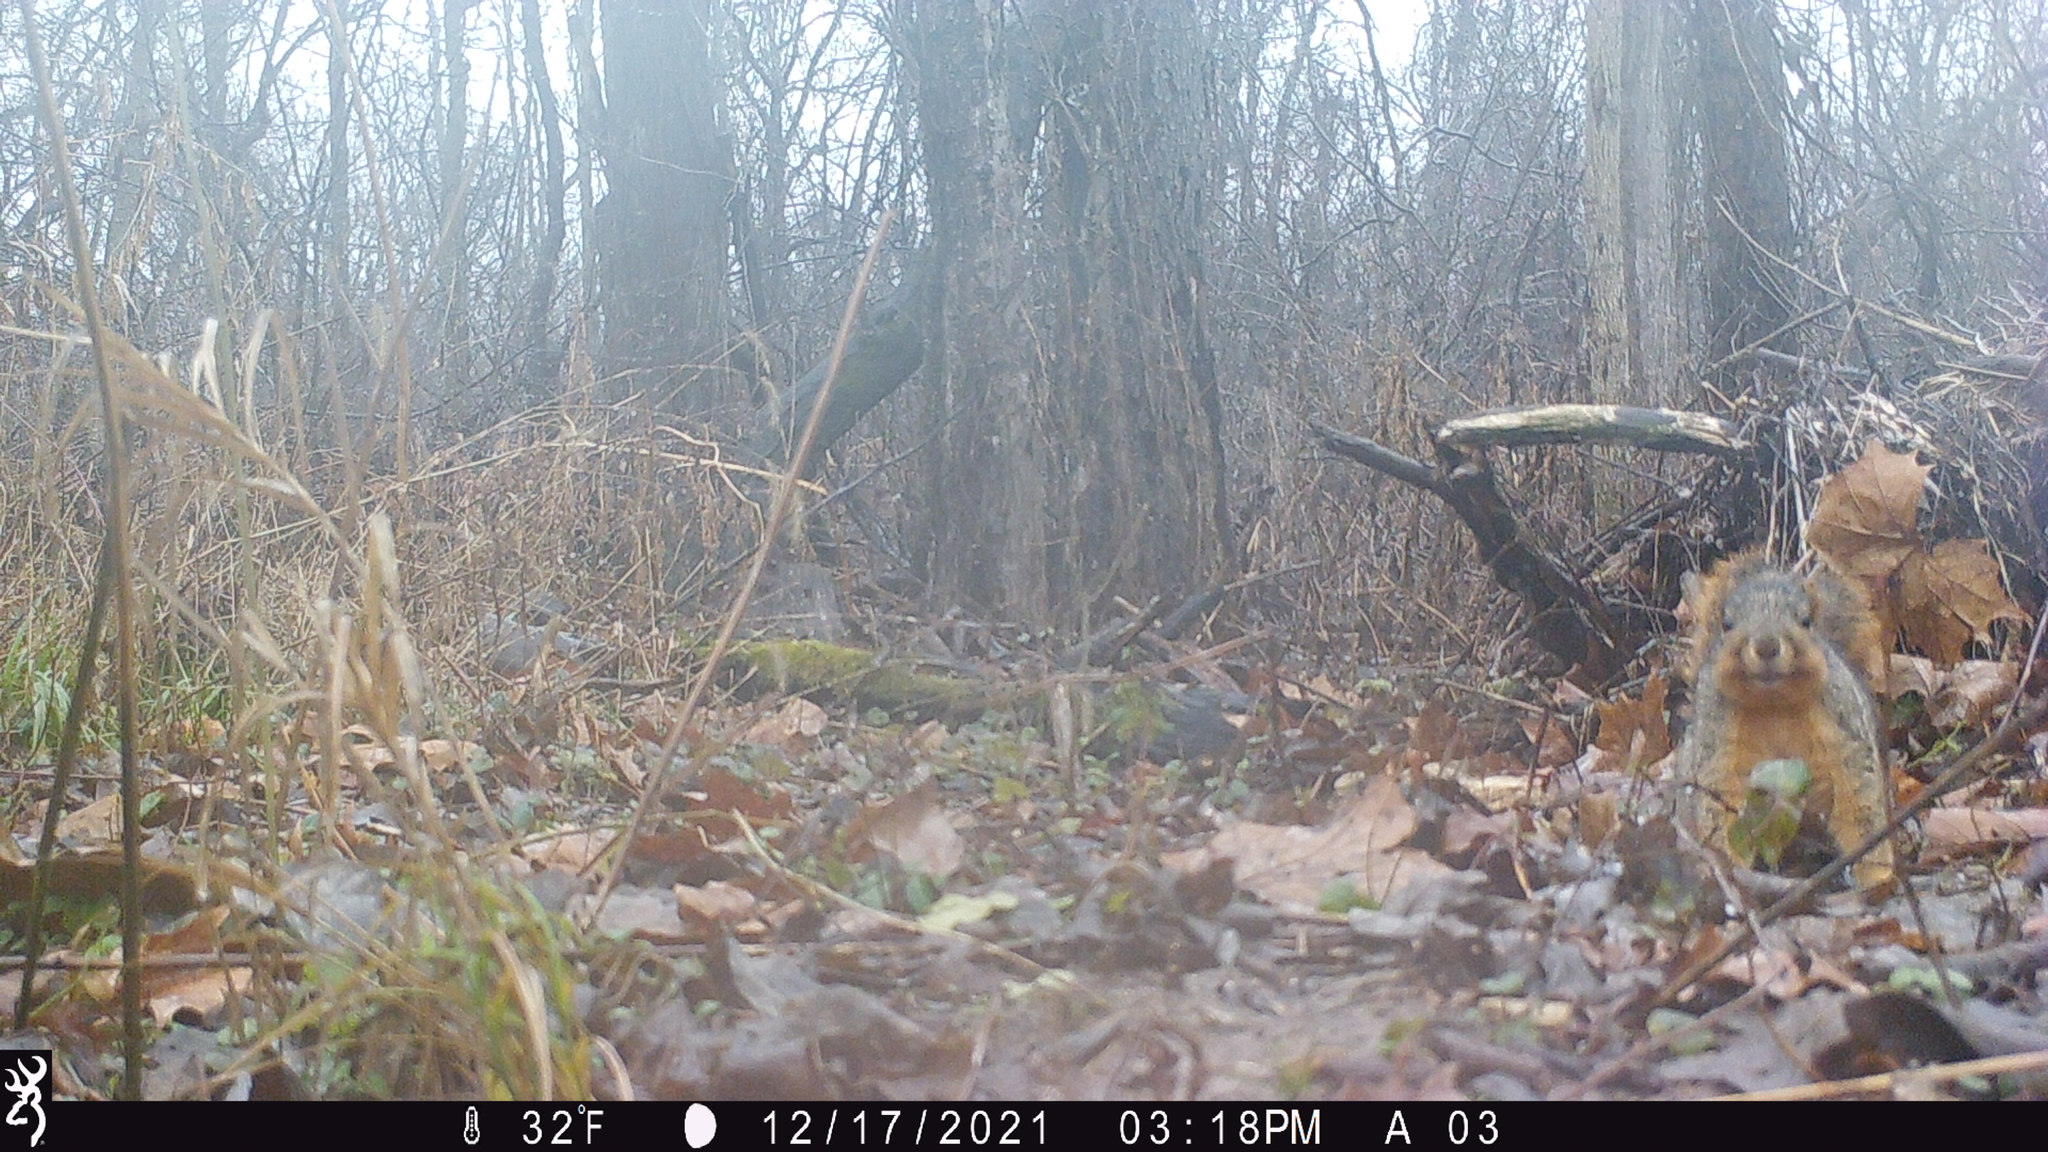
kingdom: Animalia
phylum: Chordata
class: Mammalia
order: Rodentia
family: Sciuridae
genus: Sciurus
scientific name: Sciurus niger
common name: Fox squirrel
